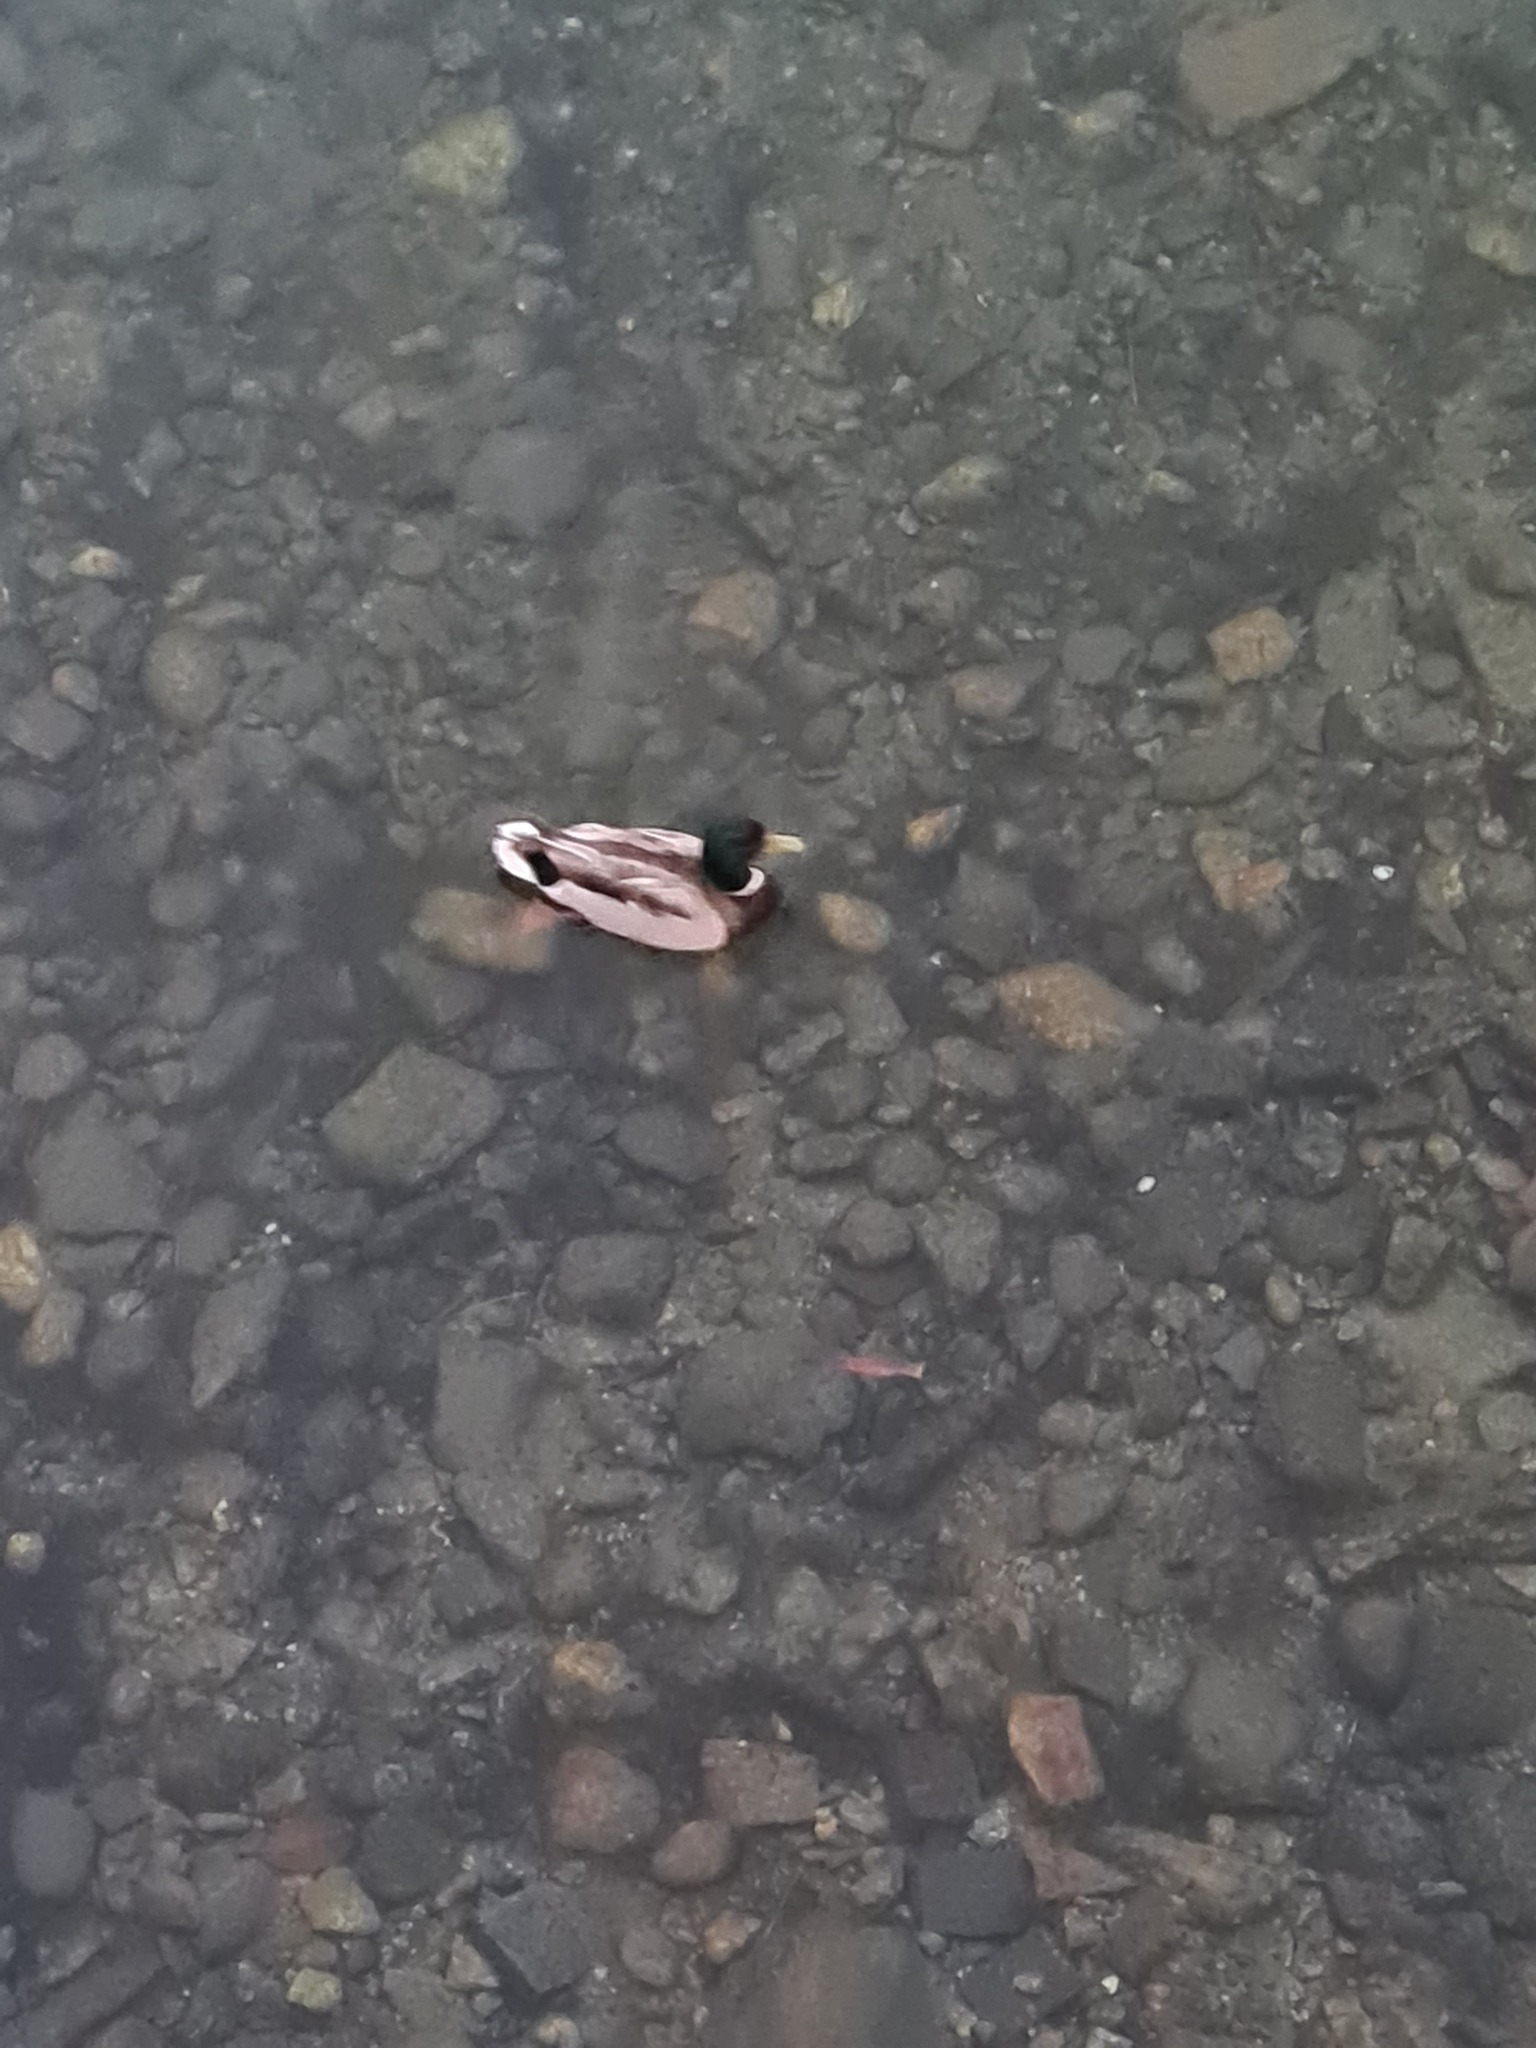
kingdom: Animalia
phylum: Chordata
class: Aves
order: Anseriformes
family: Anatidae
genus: Anas
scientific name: Anas platyrhynchos
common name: Mallard
